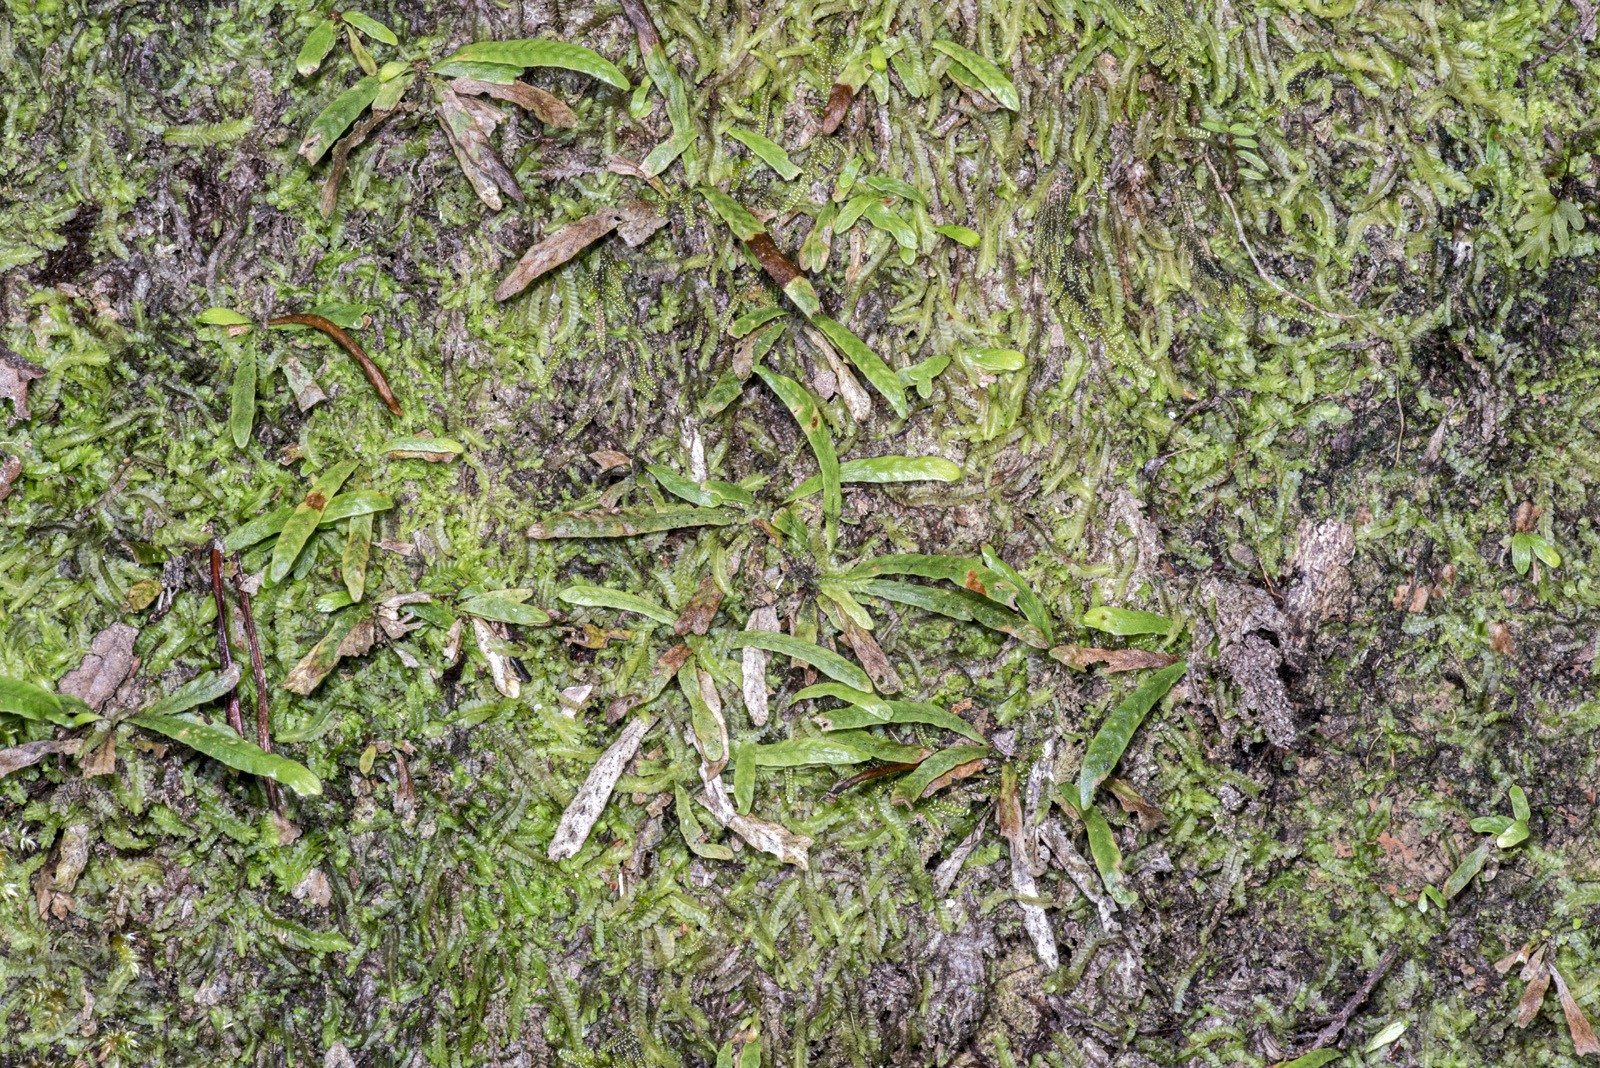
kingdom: Plantae
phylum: Tracheophyta
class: Polypodiopsida
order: Polypodiales
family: Polypodiaceae
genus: Notogrammitis
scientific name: Notogrammitis ciliata
